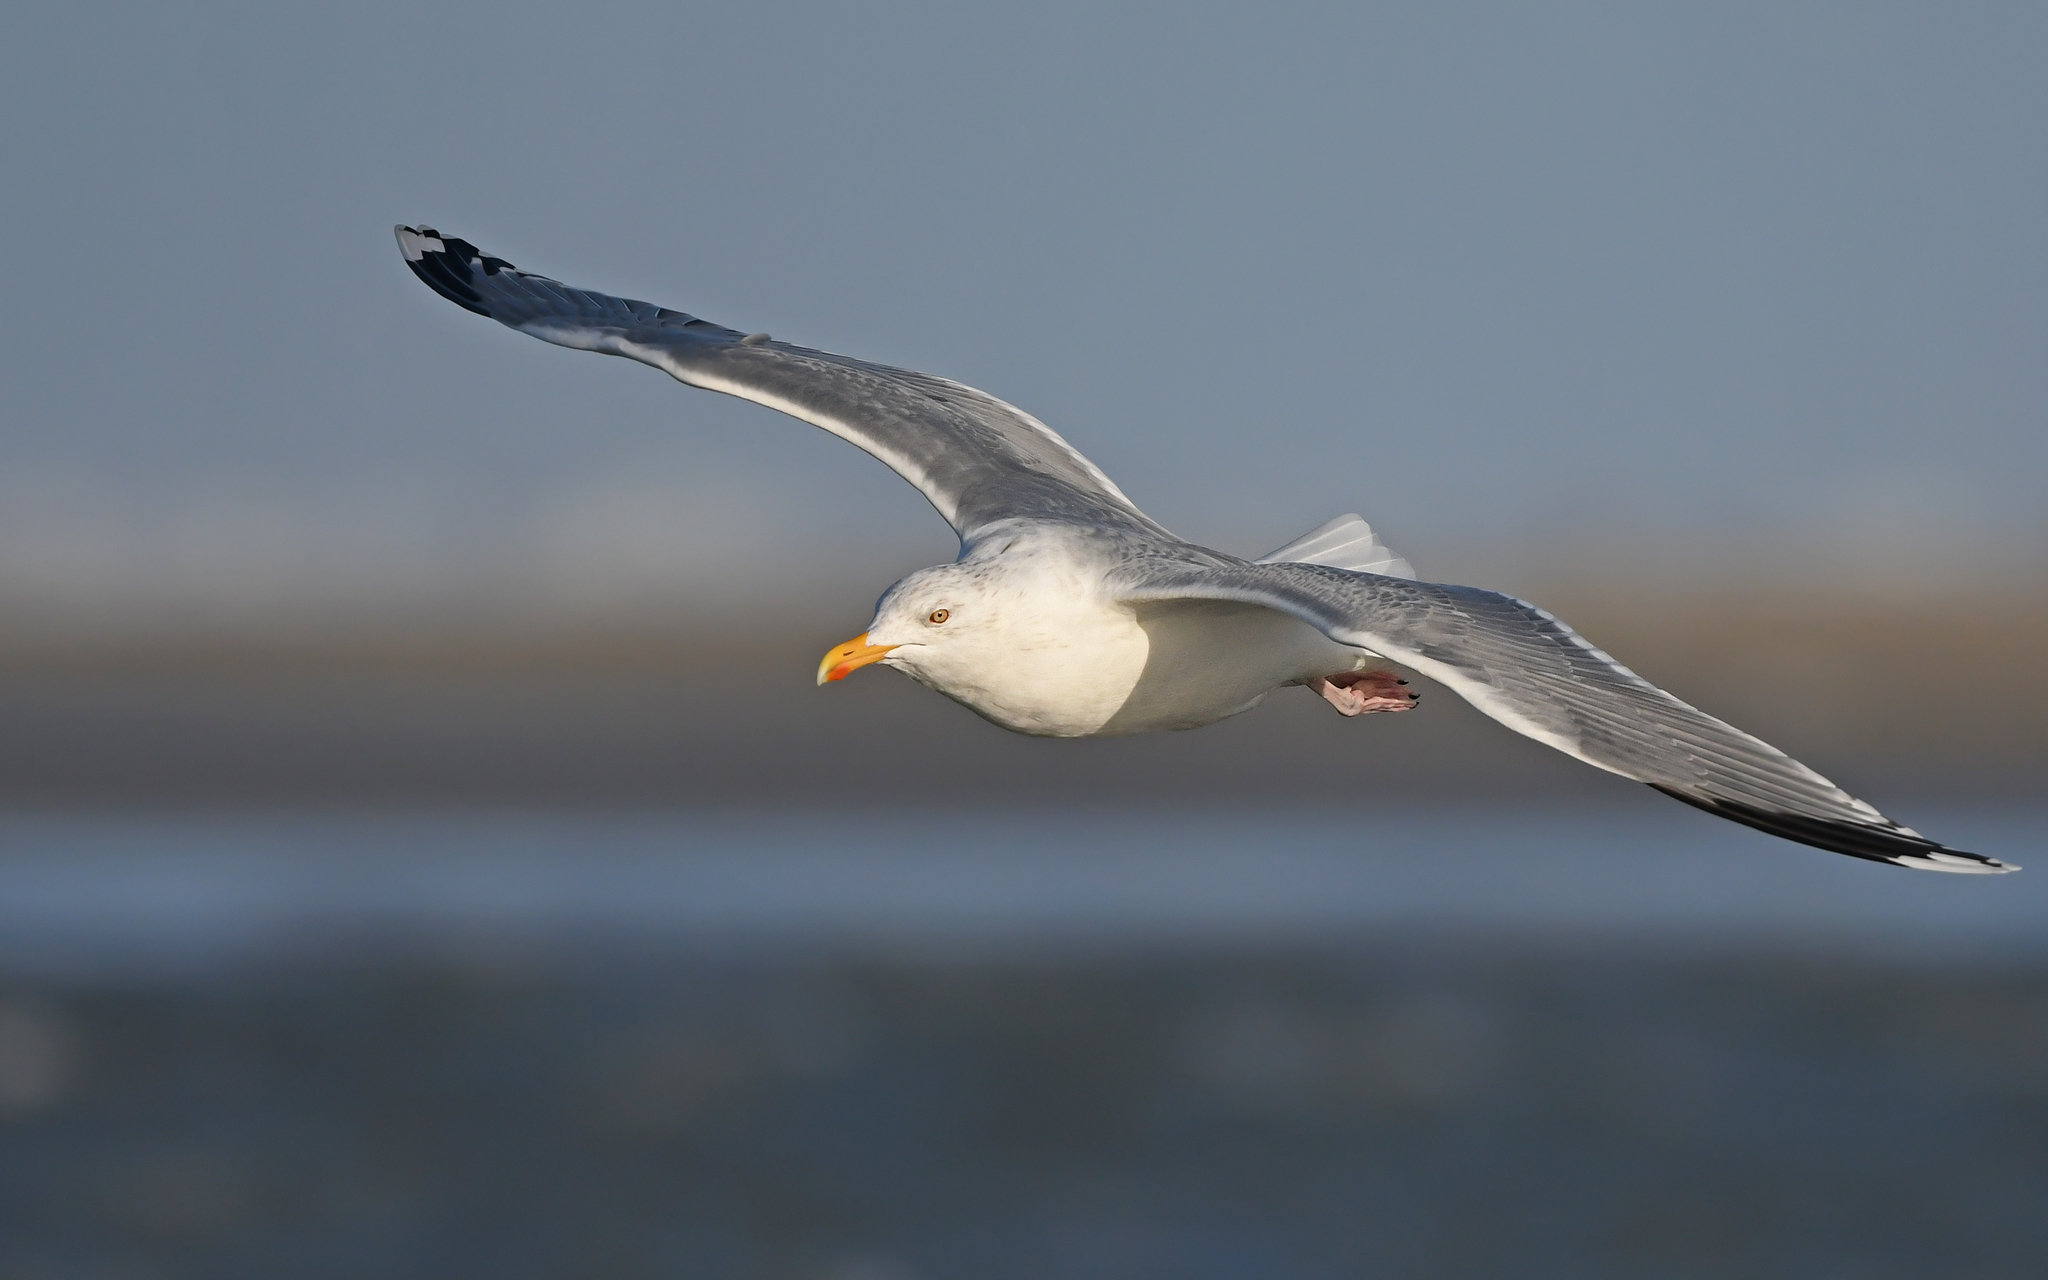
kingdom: Animalia
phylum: Chordata
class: Aves
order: Charadriiformes
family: Laridae
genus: Larus
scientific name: Larus argentatus
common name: Herring gull
